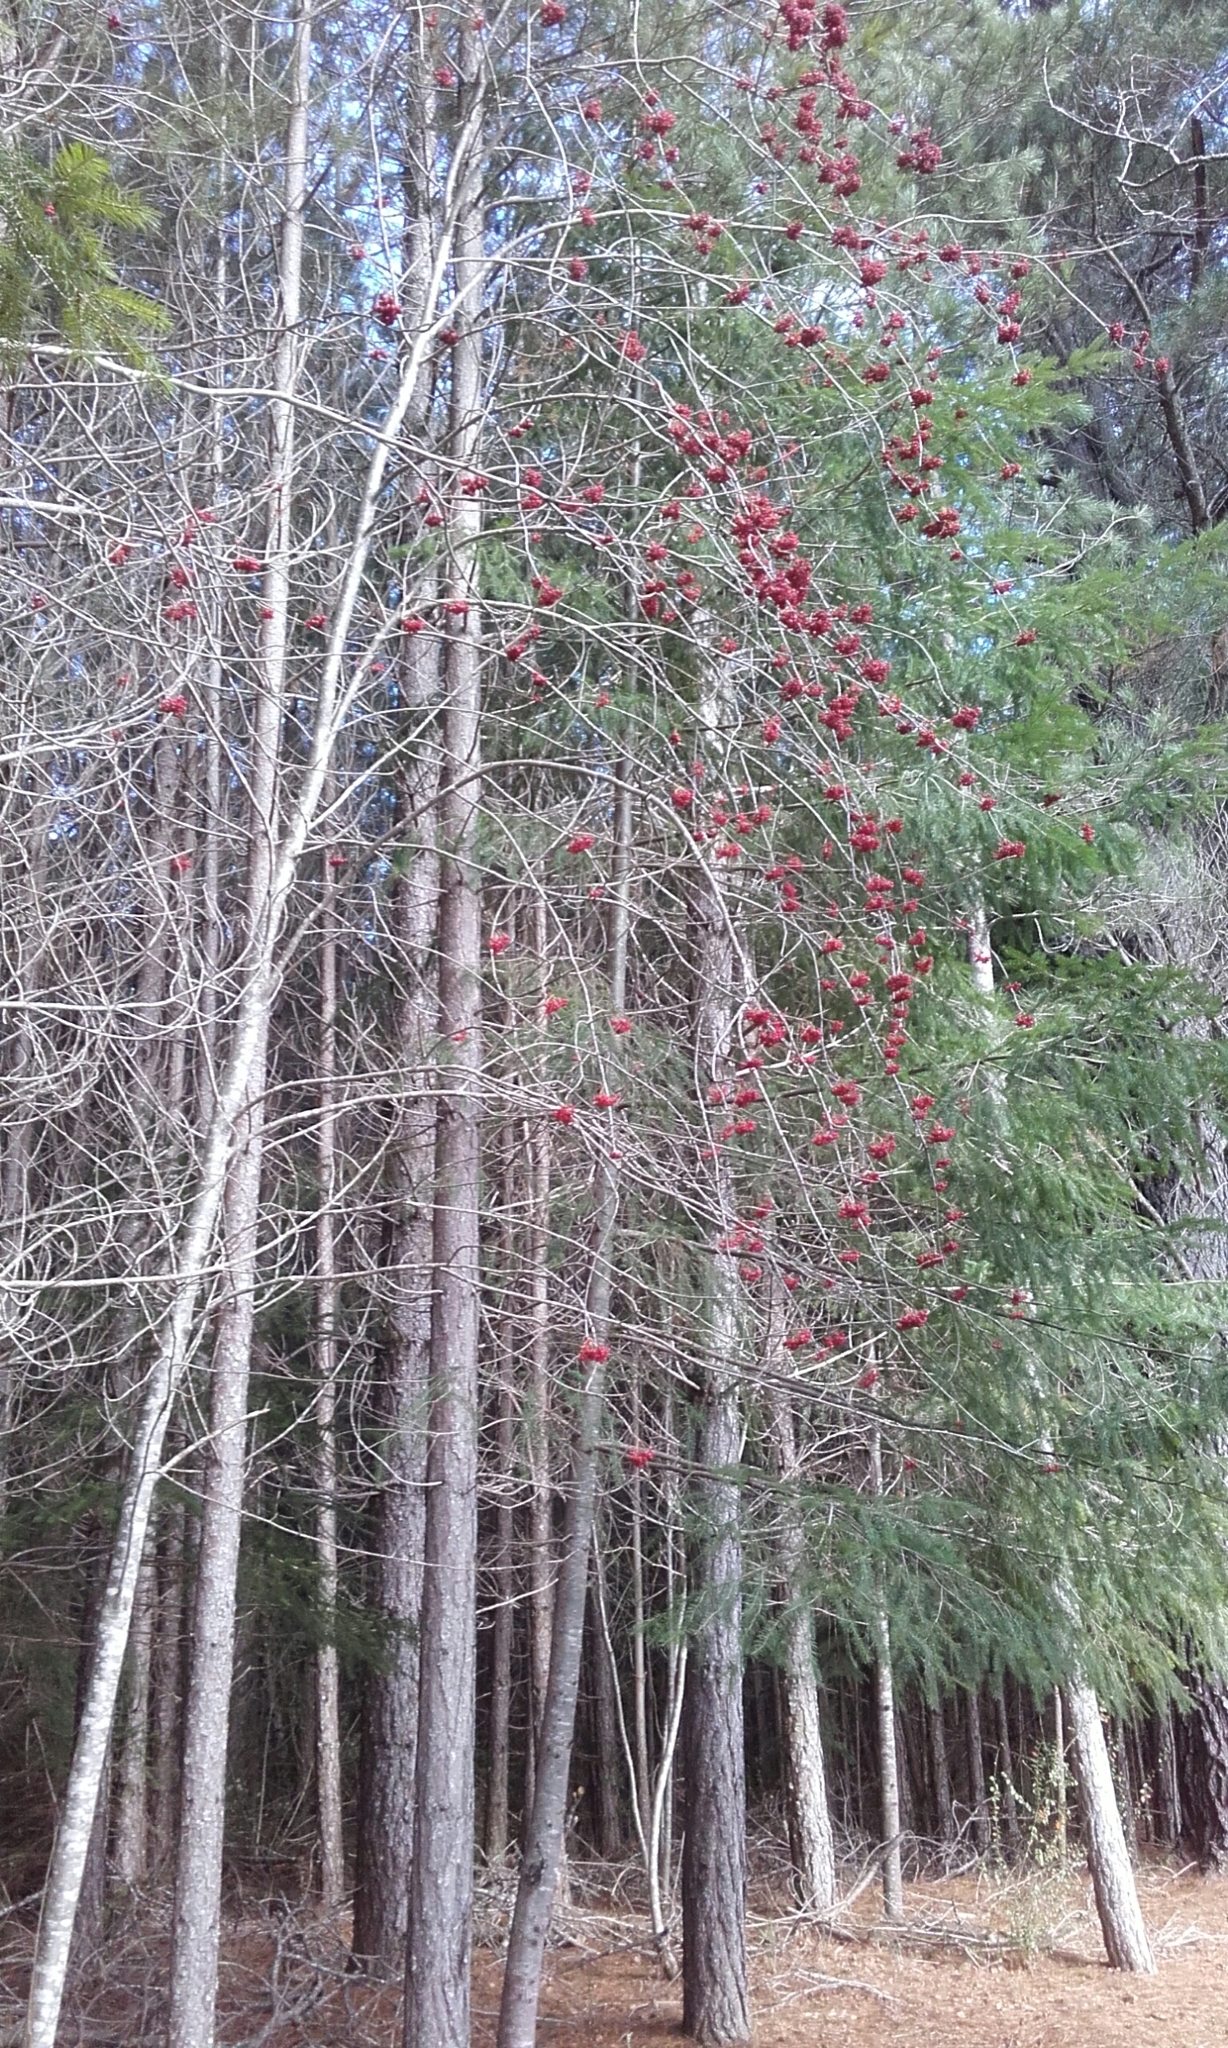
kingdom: Plantae
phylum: Tracheophyta
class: Magnoliopsida
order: Rosales
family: Rosaceae
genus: Sorbus
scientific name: Sorbus aucuparia
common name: Rowan
